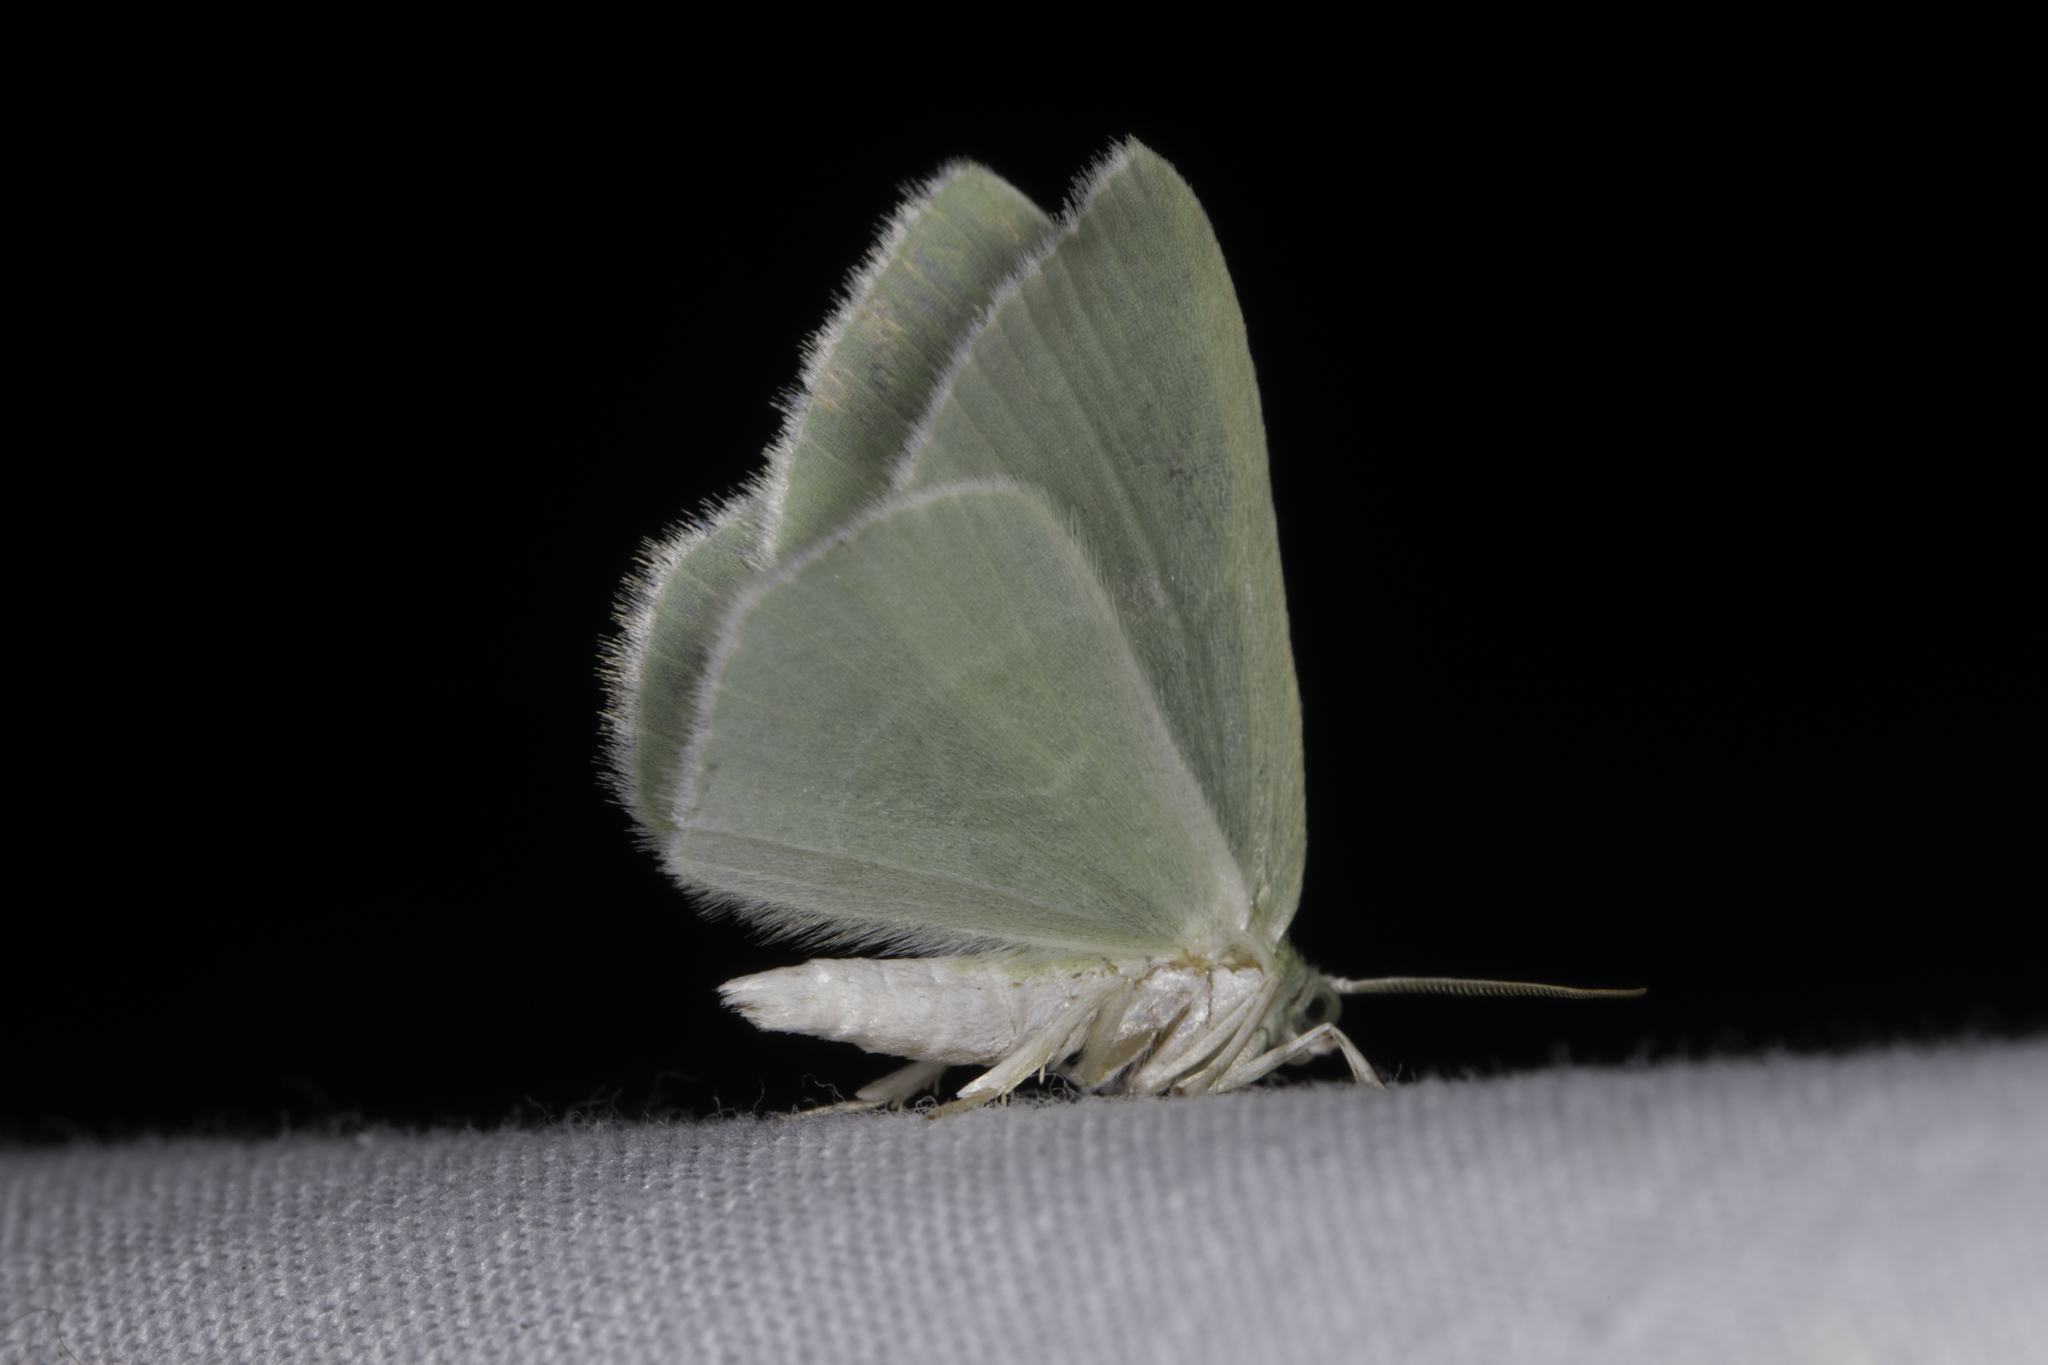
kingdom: Animalia
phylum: Arthropoda
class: Insecta
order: Lepidoptera
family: Geometridae
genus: Nemoria
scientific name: Nemoria
